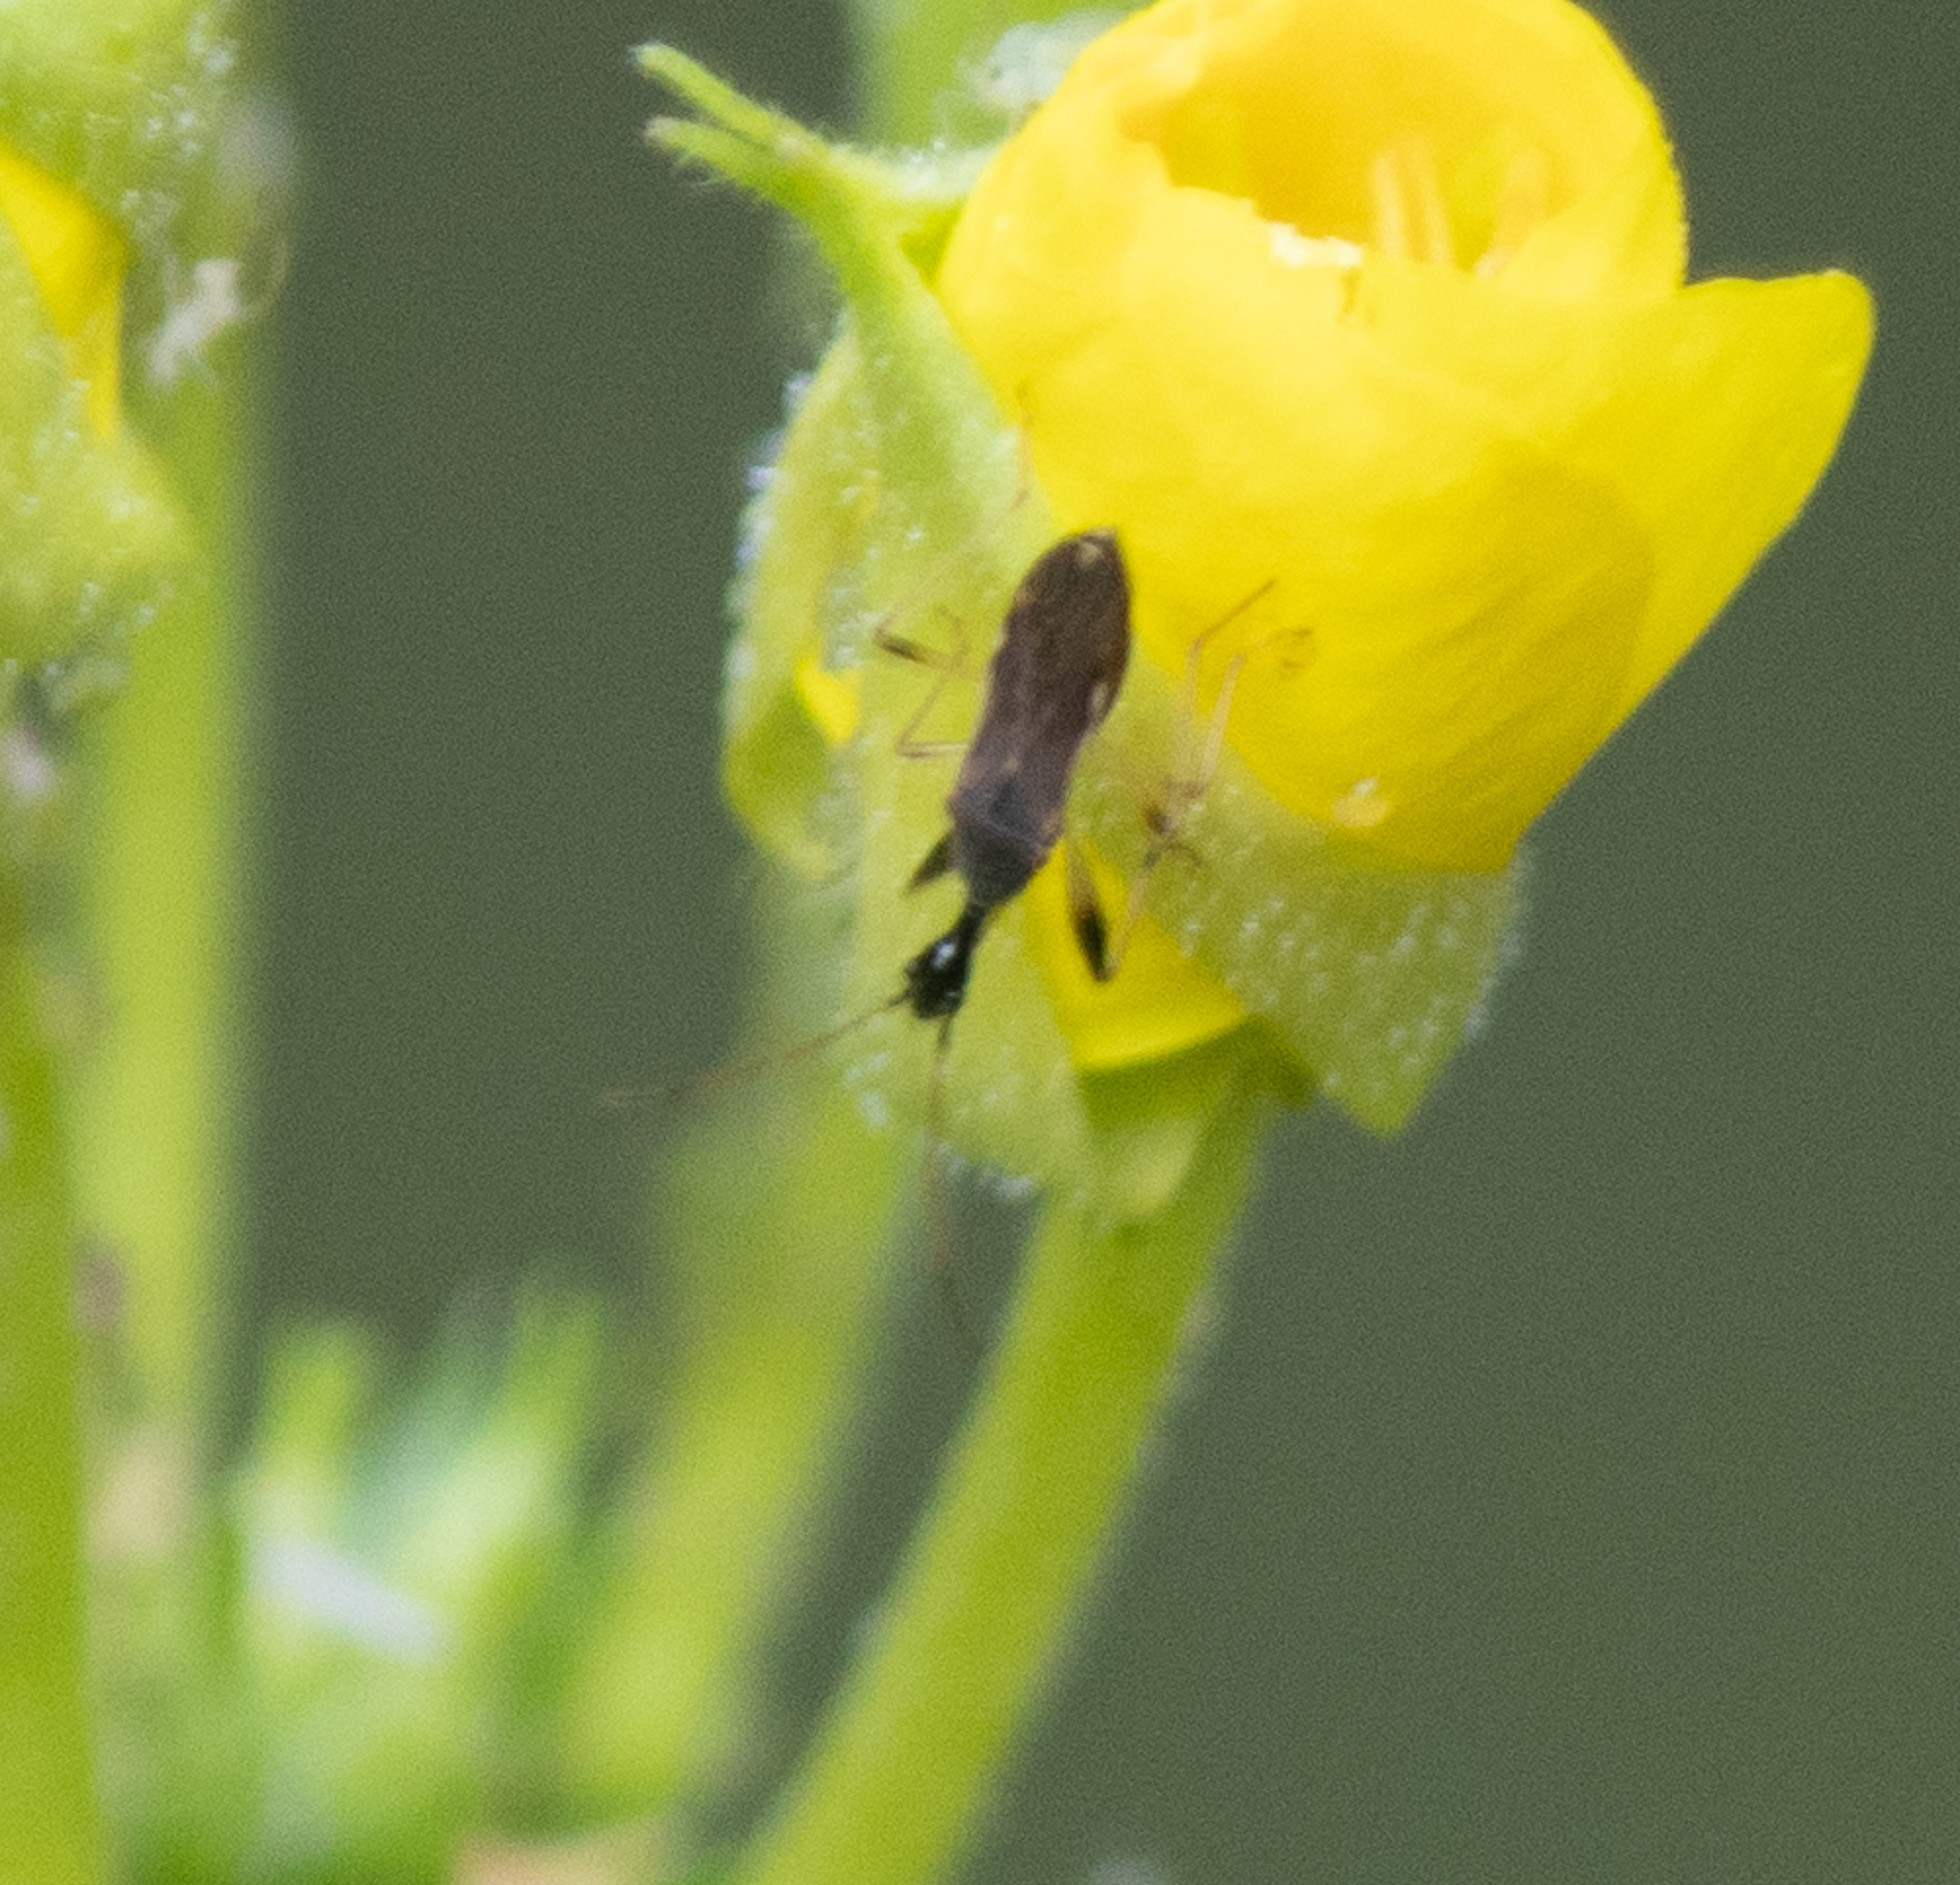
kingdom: Animalia
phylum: Arthropoda
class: Insecta
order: Hemiptera
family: Rhyparochromidae
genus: Myodocha
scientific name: Myodocha serripes
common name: Long-necked seed bug
